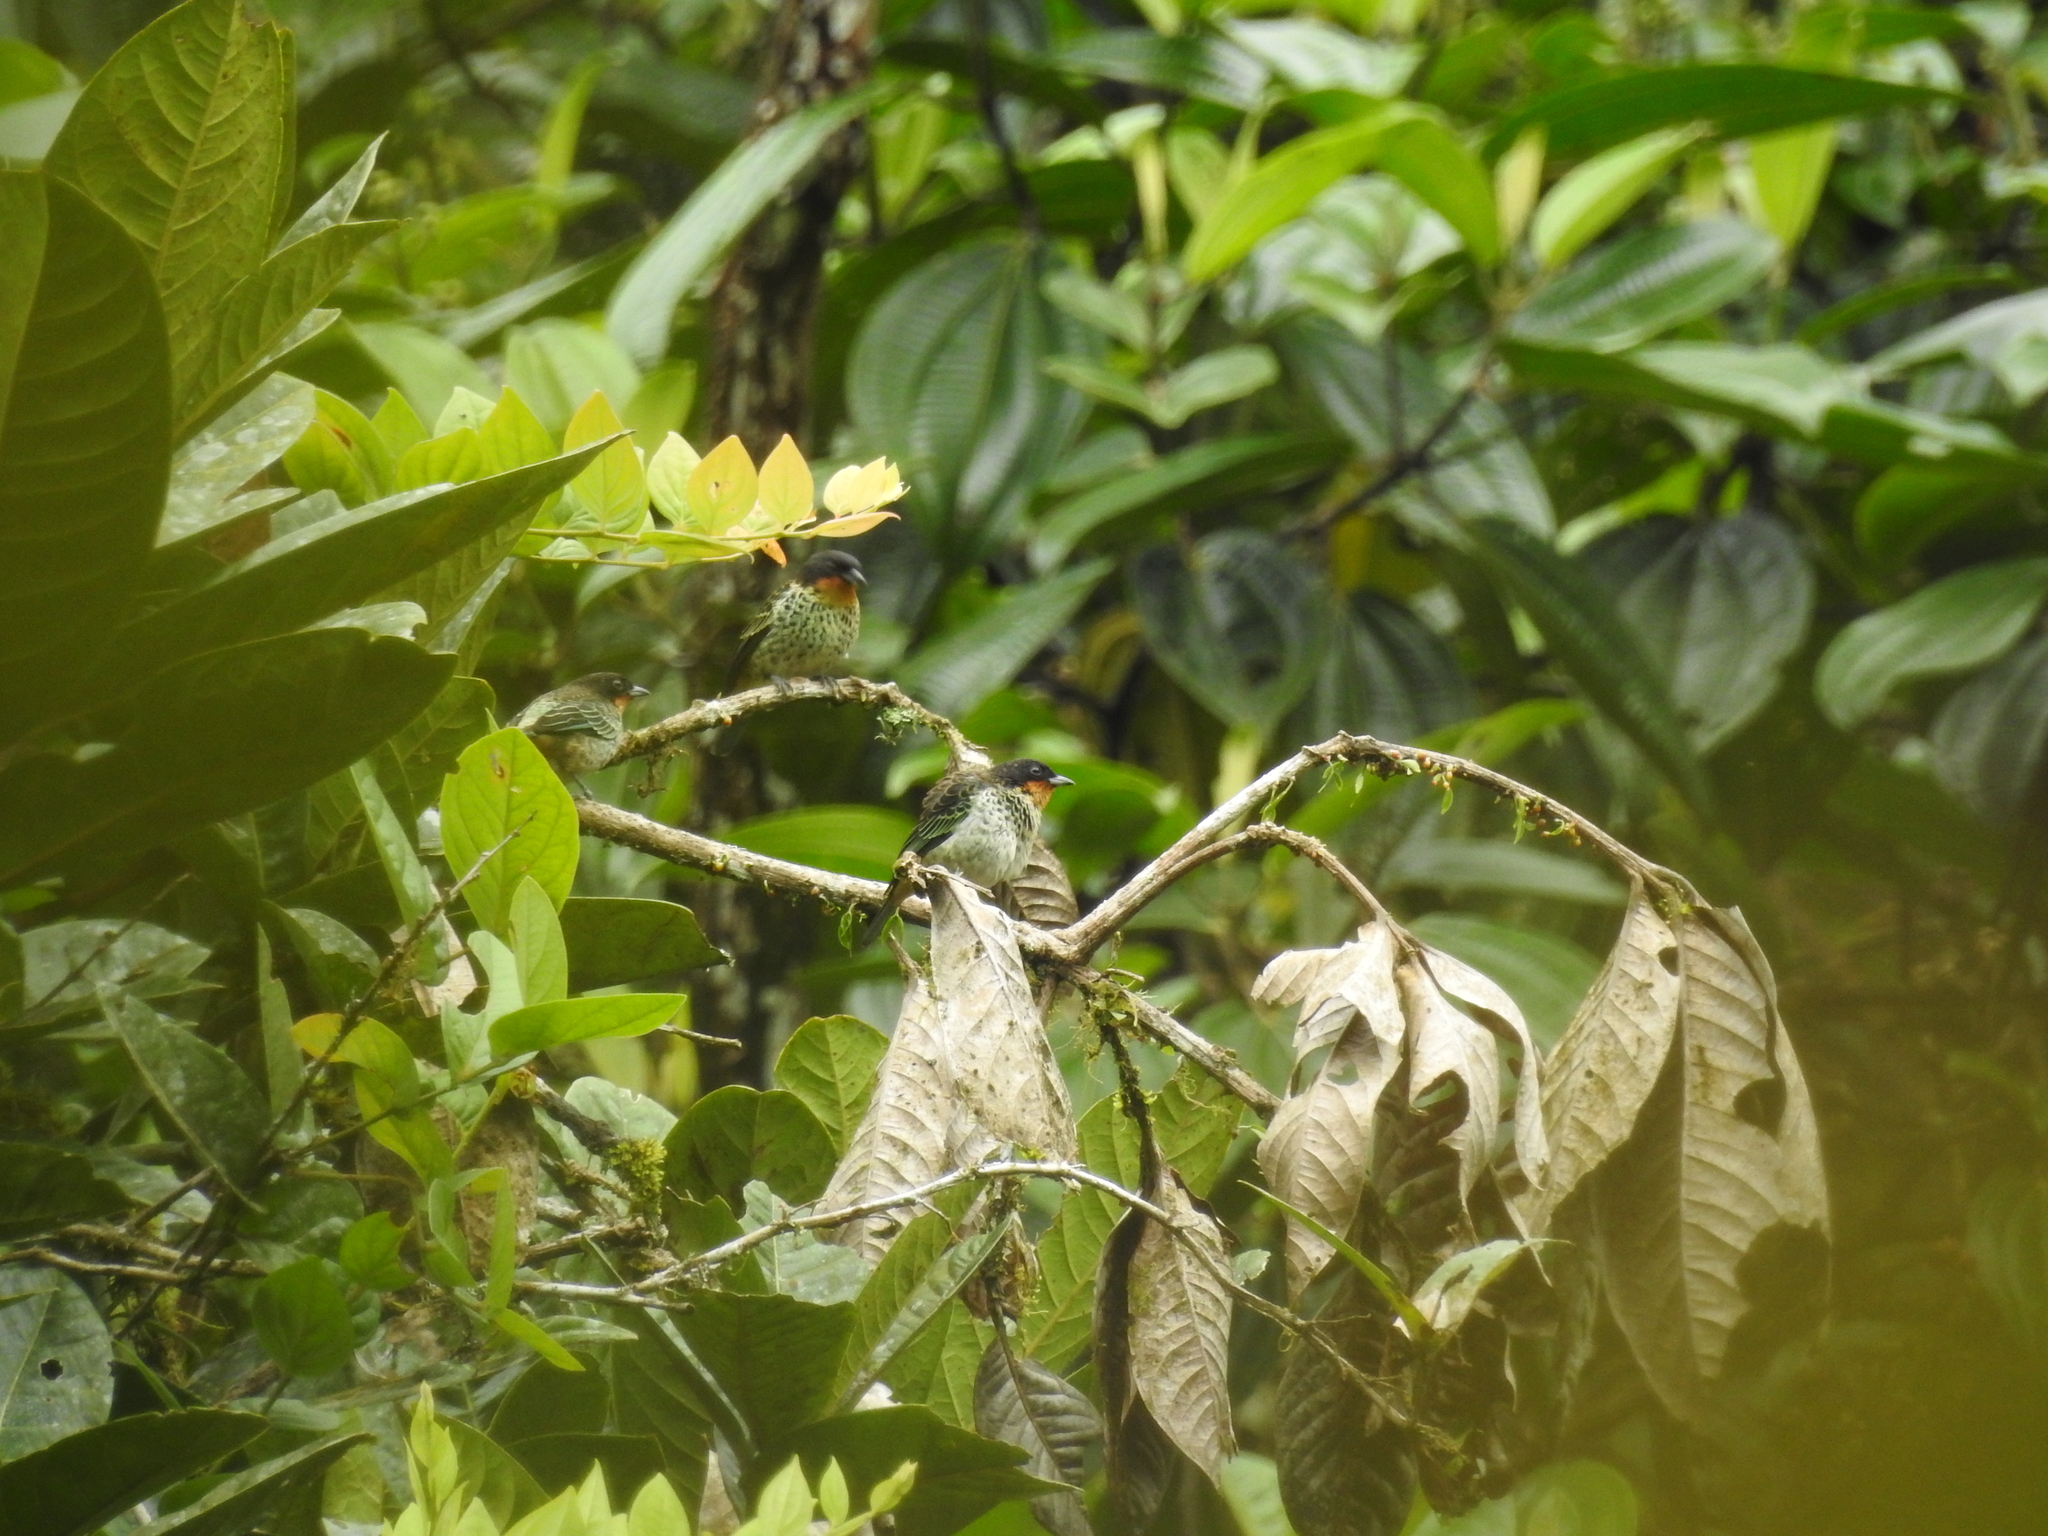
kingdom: Animalia
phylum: Chordata
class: Aves
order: Passeriformes
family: Thraupidae
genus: Ixothraupis
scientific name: Ixothraupis rufigula
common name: Rufous-throated tanager
